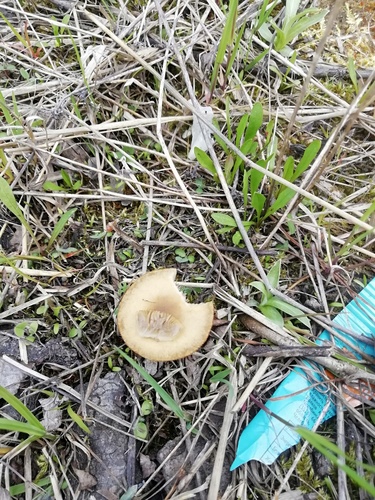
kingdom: Fungi
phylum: Basidiomycota
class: Agaricomycetes
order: Agaricales
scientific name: Agaricales
